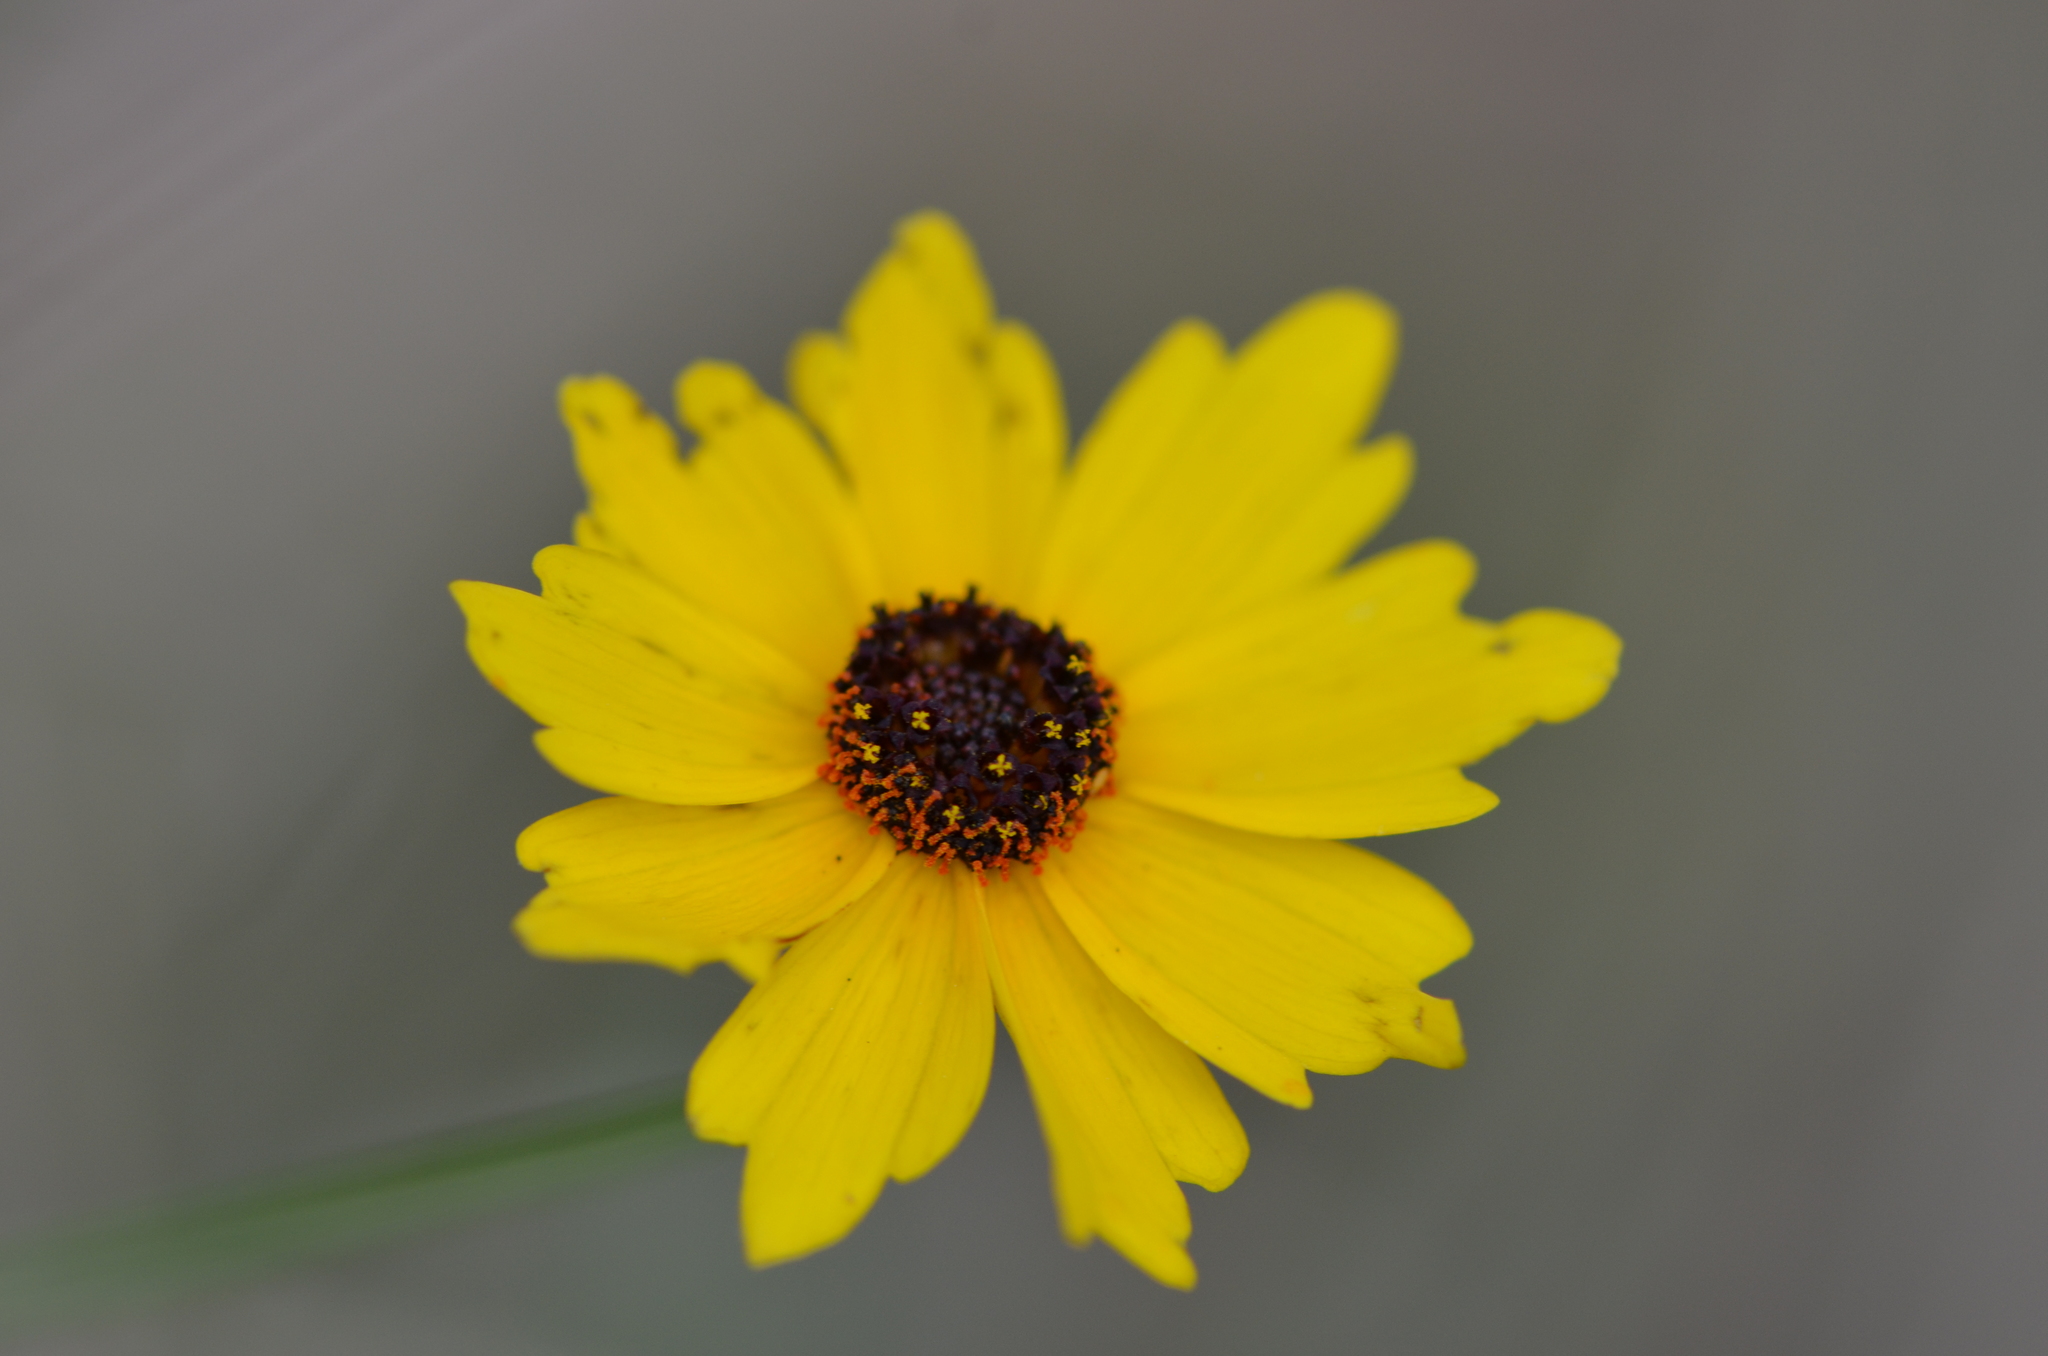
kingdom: Plantae
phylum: Tracheophyta
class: Magnoliopsida
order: Asterales
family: Asteraceae
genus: Coreopsis
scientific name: Coreopsis leavenworthii
